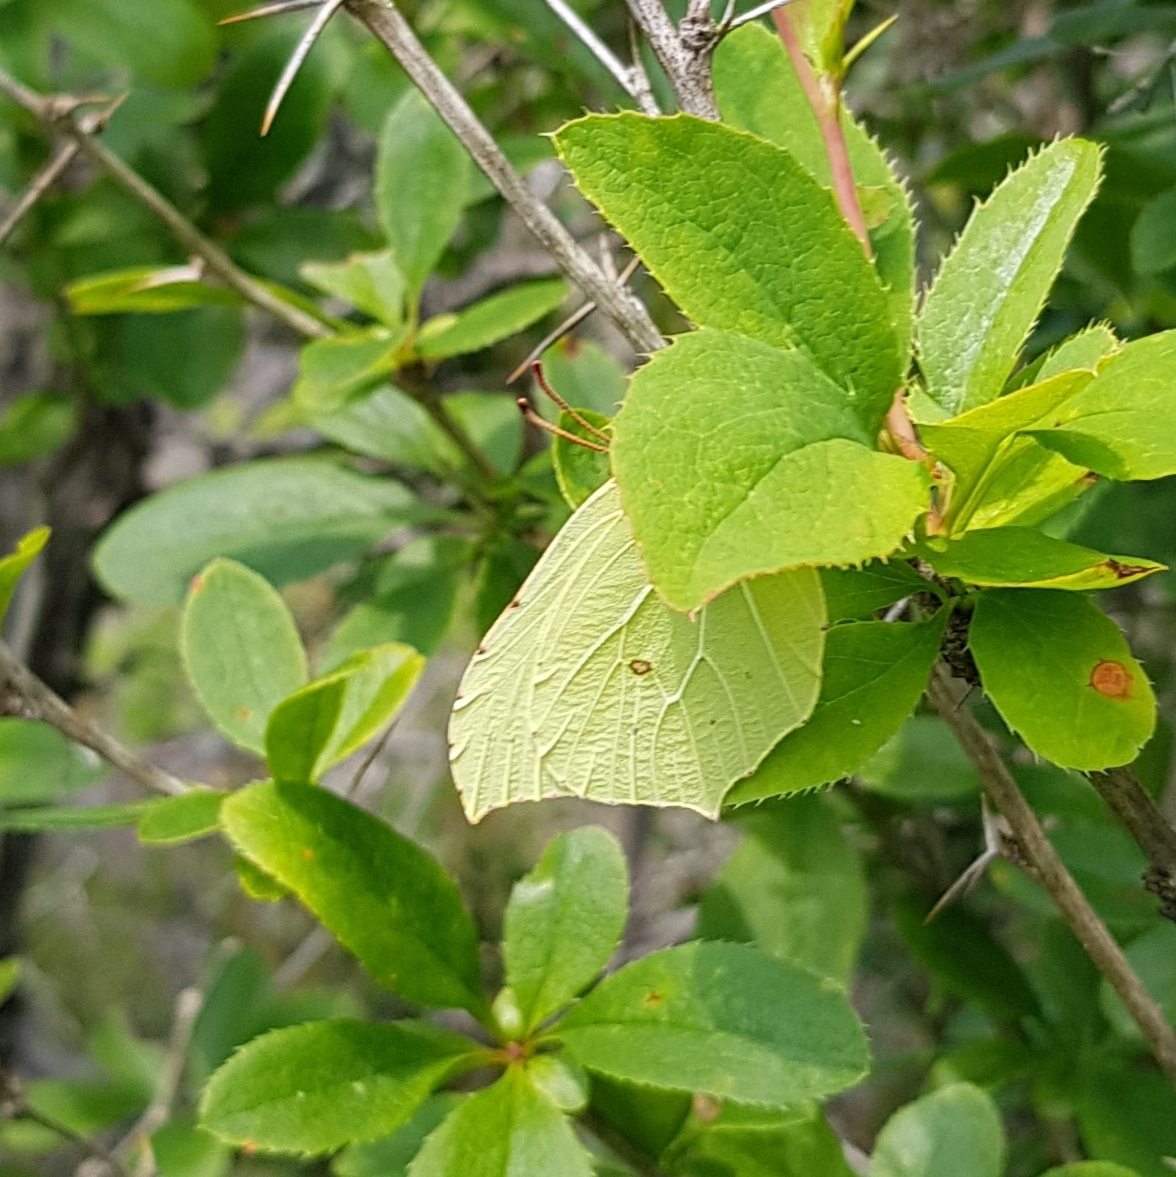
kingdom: Animalia
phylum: Arthropoda
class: Insecta
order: Lepidoptera
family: Pieridae
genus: Gonepteryx
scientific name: Gonepteryx rhamni
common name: Brimstone
